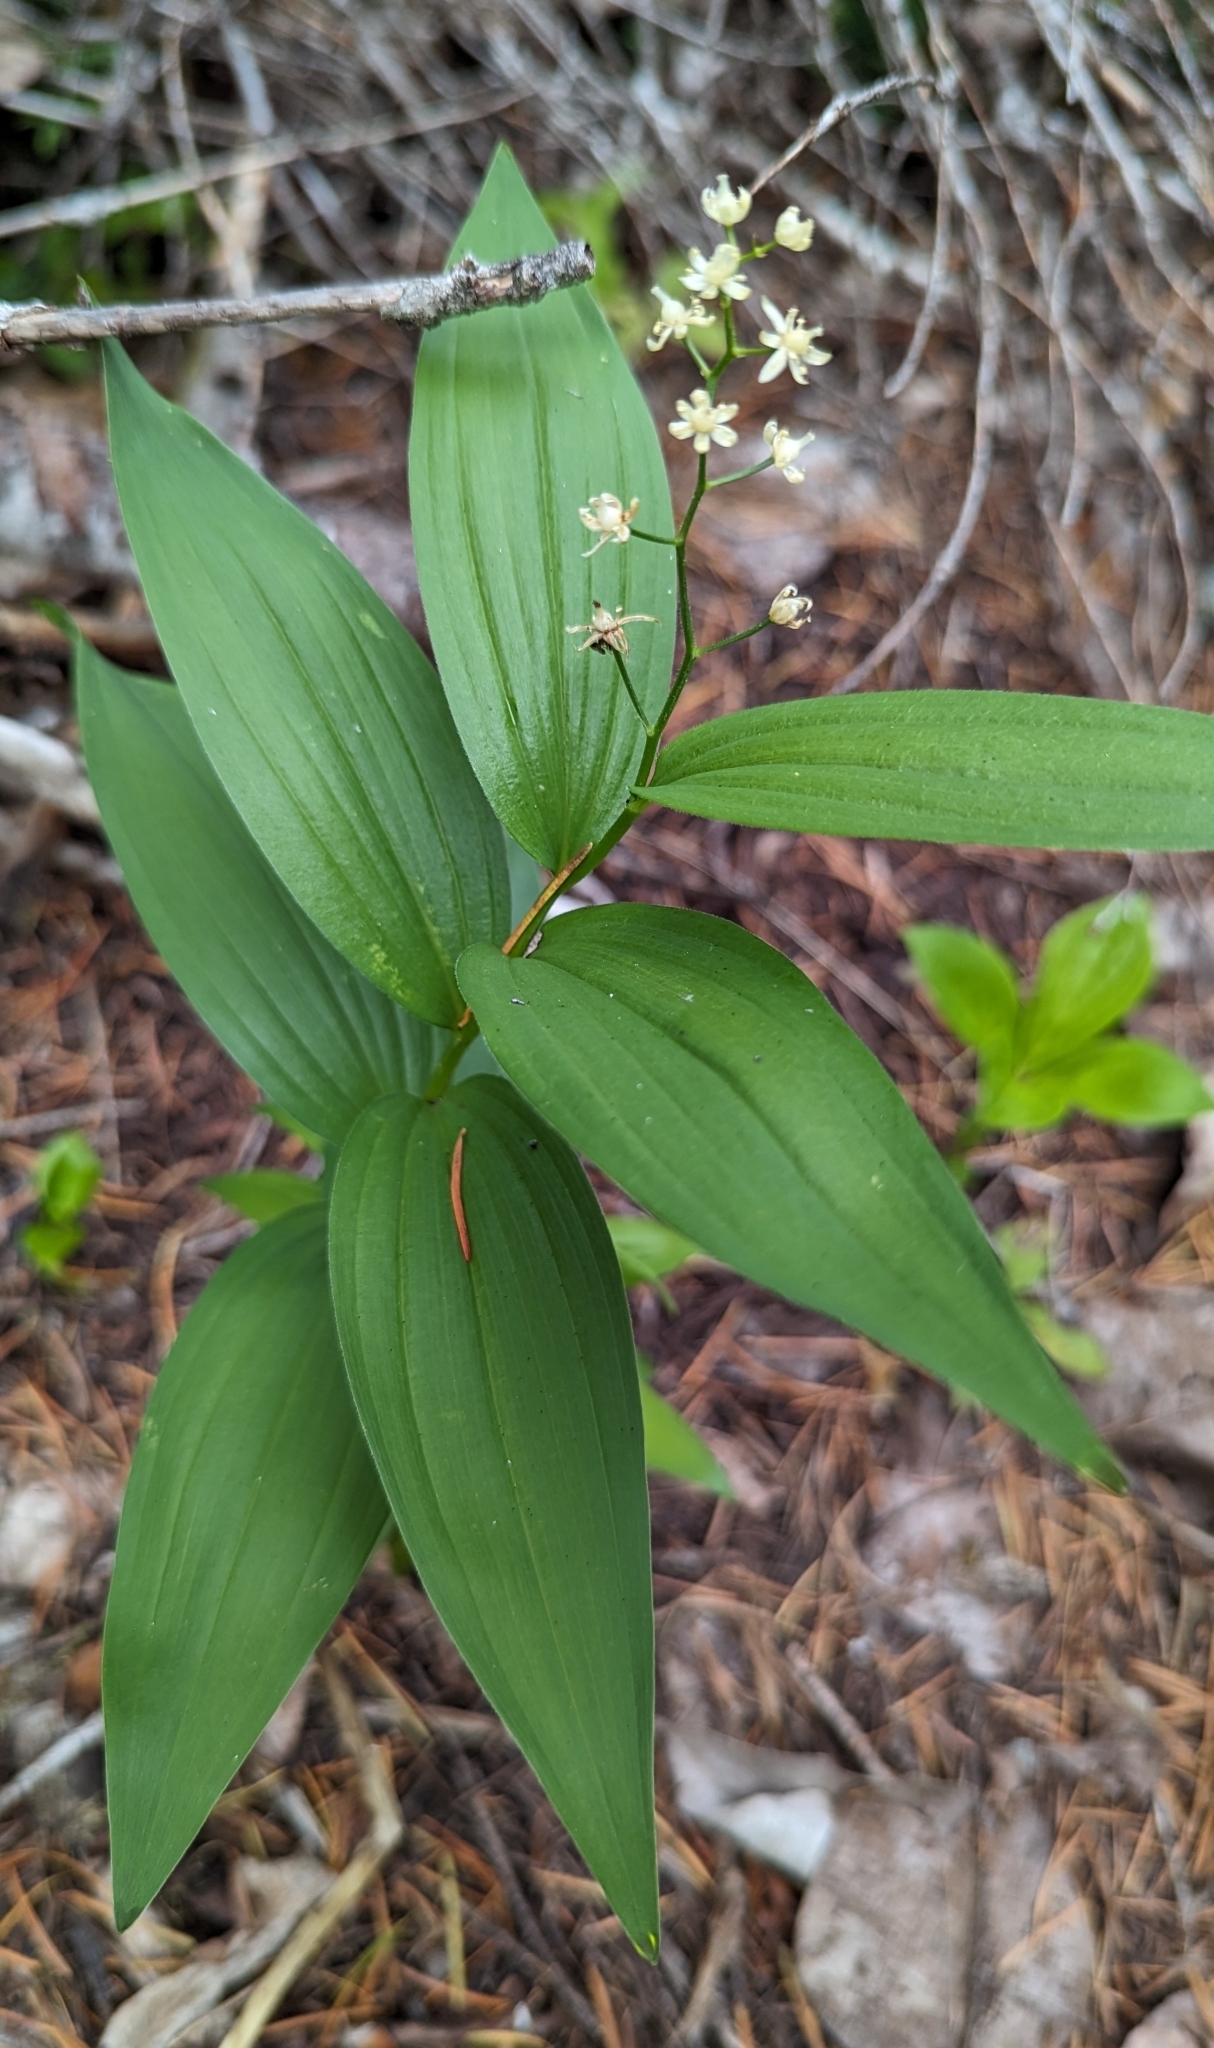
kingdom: Plantae
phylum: Tracheophyta
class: Liliopsida
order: Asparagales
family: Asparagaceae
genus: Maianthemum
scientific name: Maianthemum stellatum
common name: Little false solomon's seal
